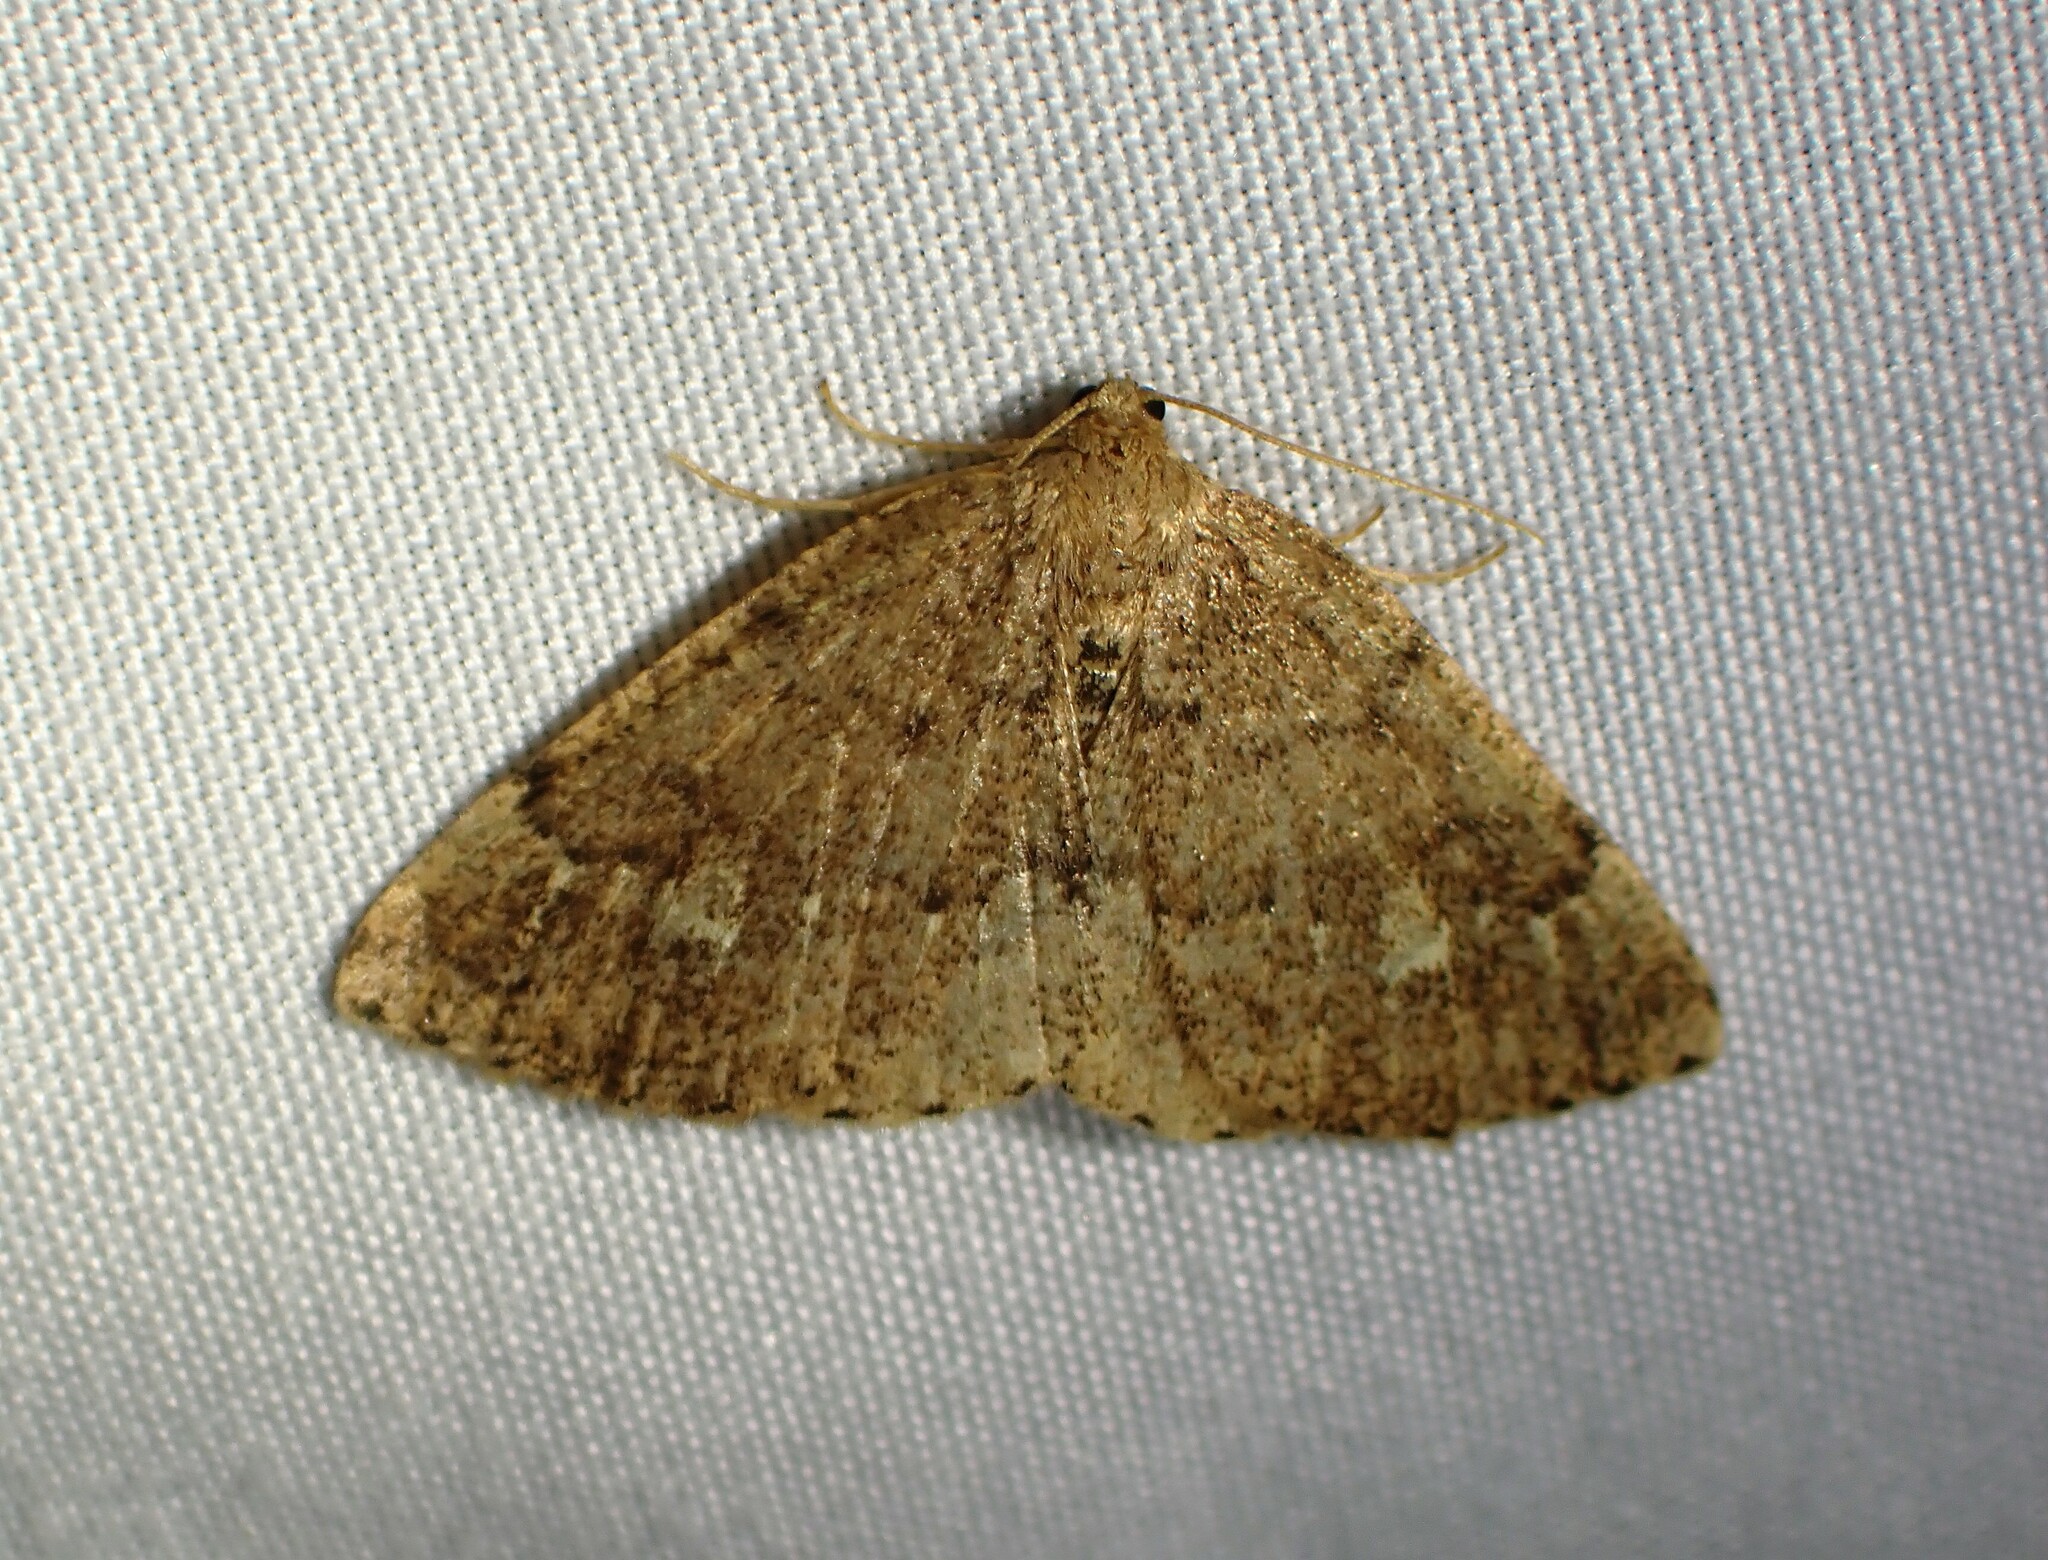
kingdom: Animalia
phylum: Arthropoda
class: Insecta
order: Lepidoptera
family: Geometridae
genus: Homochlodes
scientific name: Homochlodes fritillaria
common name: Pale homochlodes
